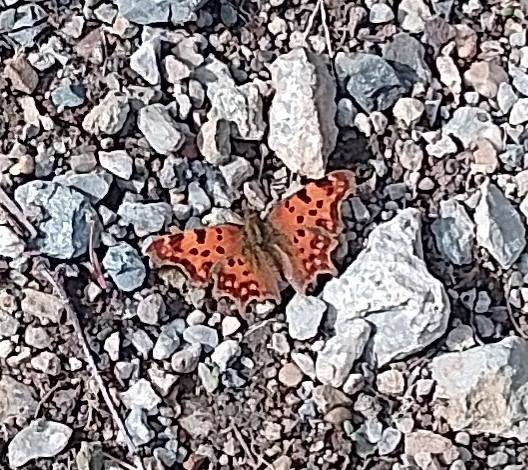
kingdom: Animalia
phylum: Arthropoda
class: Insecta
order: Lepidoptera
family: Nymphalidae
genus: Polygonia
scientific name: Polygonia c-album
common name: Comma
